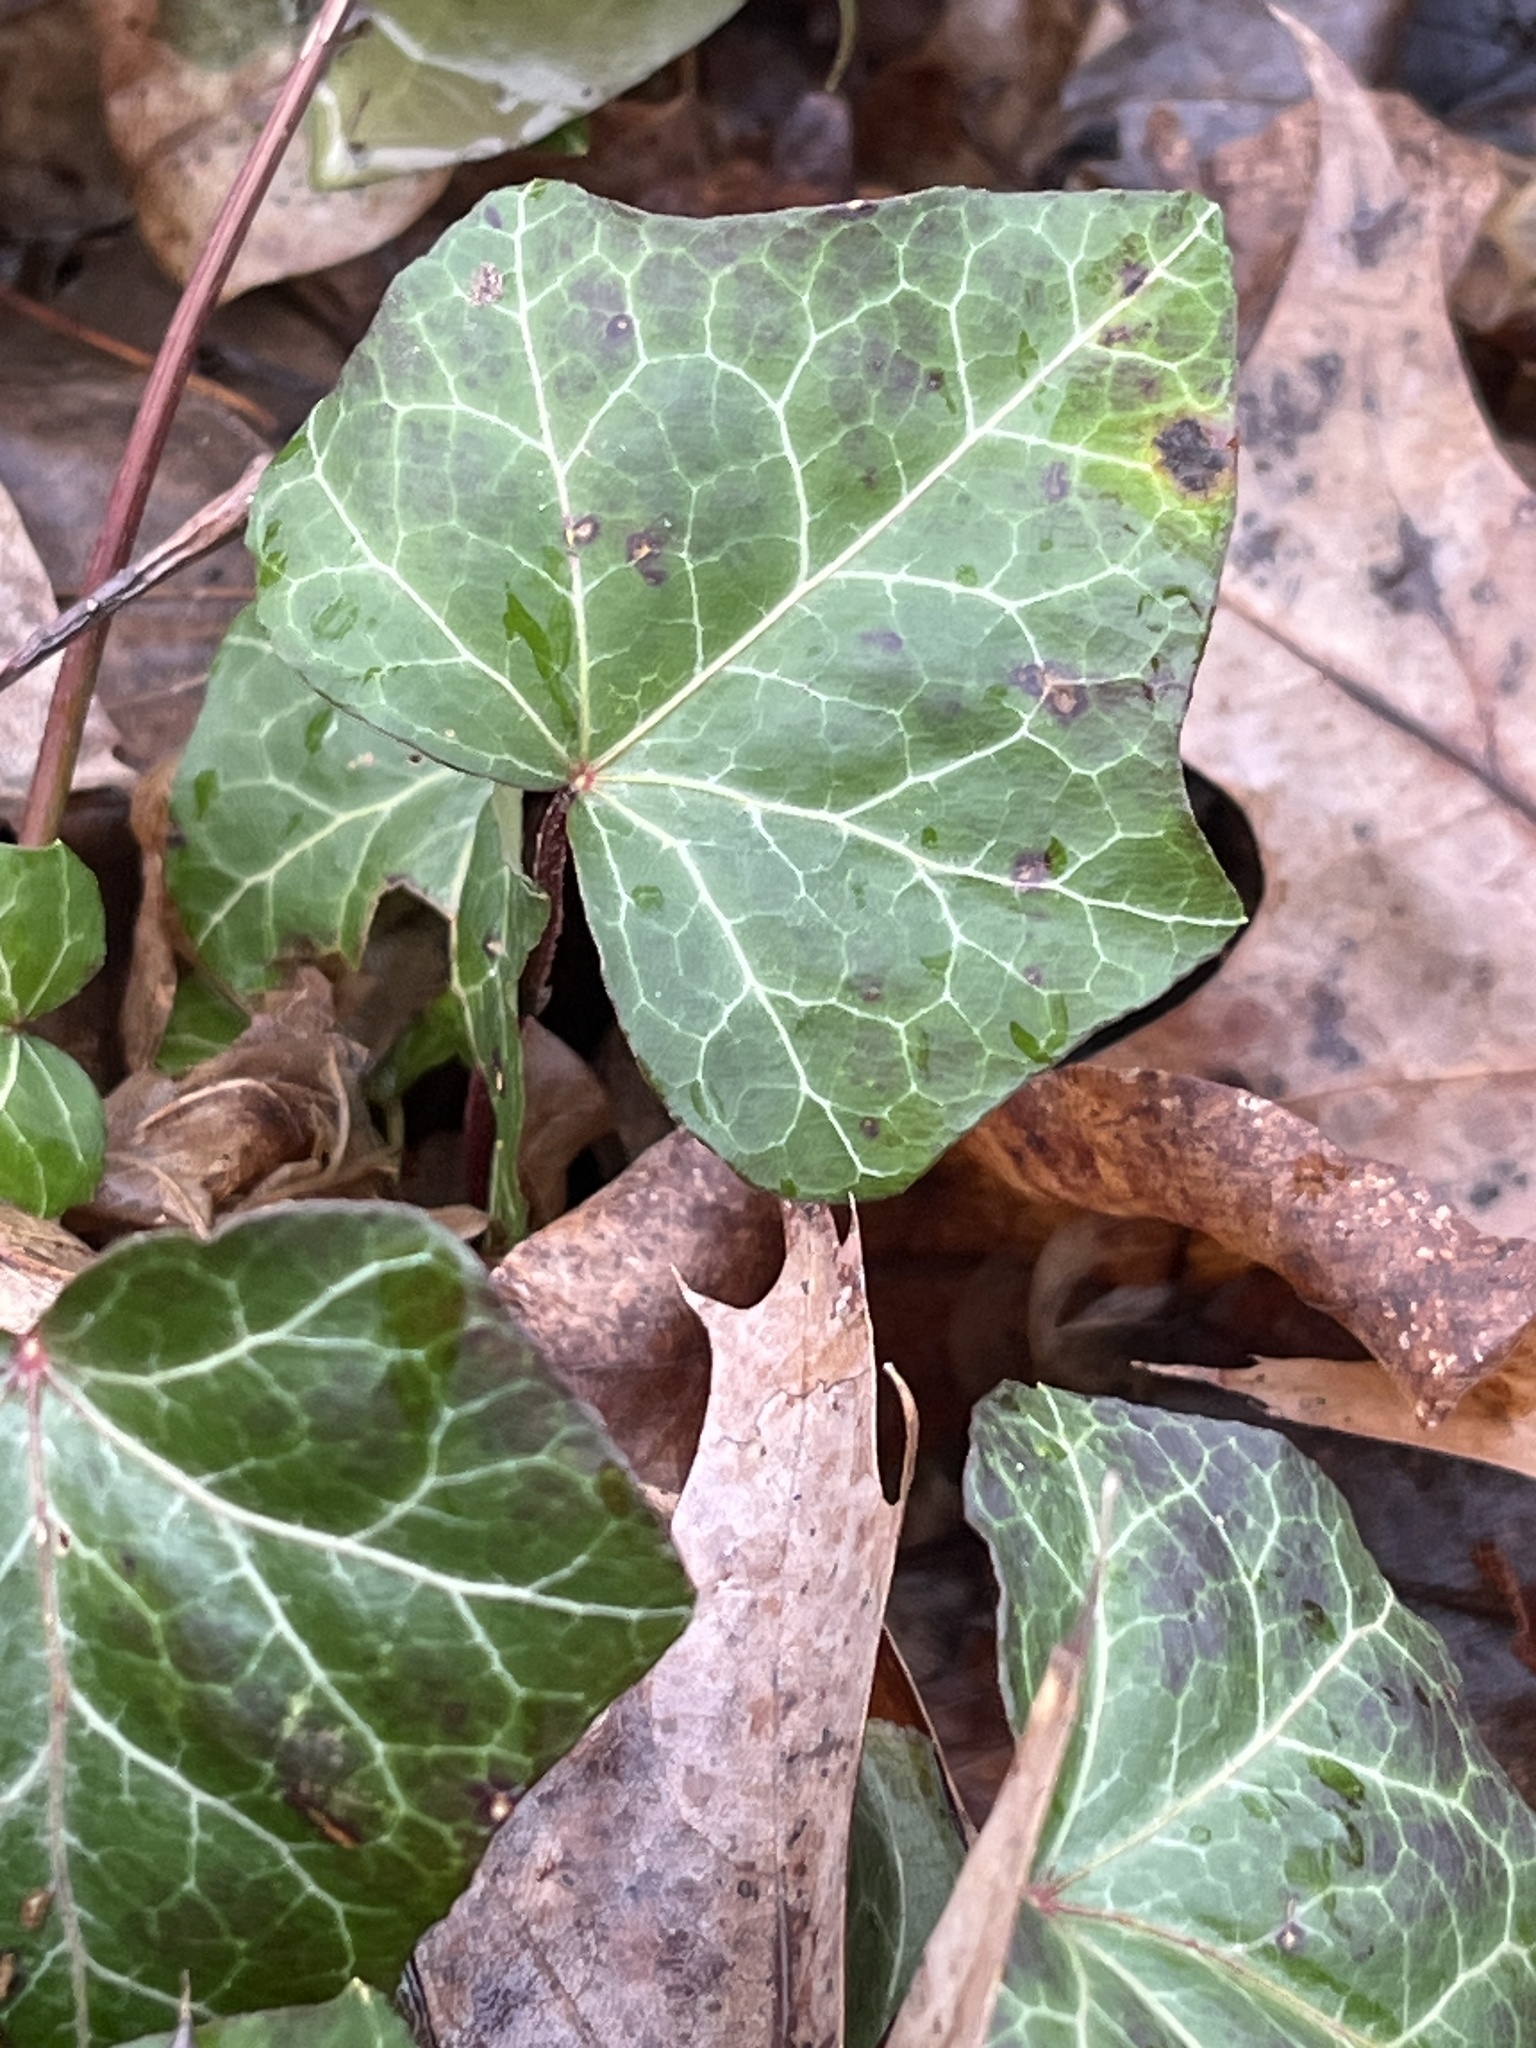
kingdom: Plantae
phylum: Tracheophyta
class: Magnoliopsida
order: Apiales
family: Araliaceae
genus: Hedera
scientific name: Hedera helix
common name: Ivy
